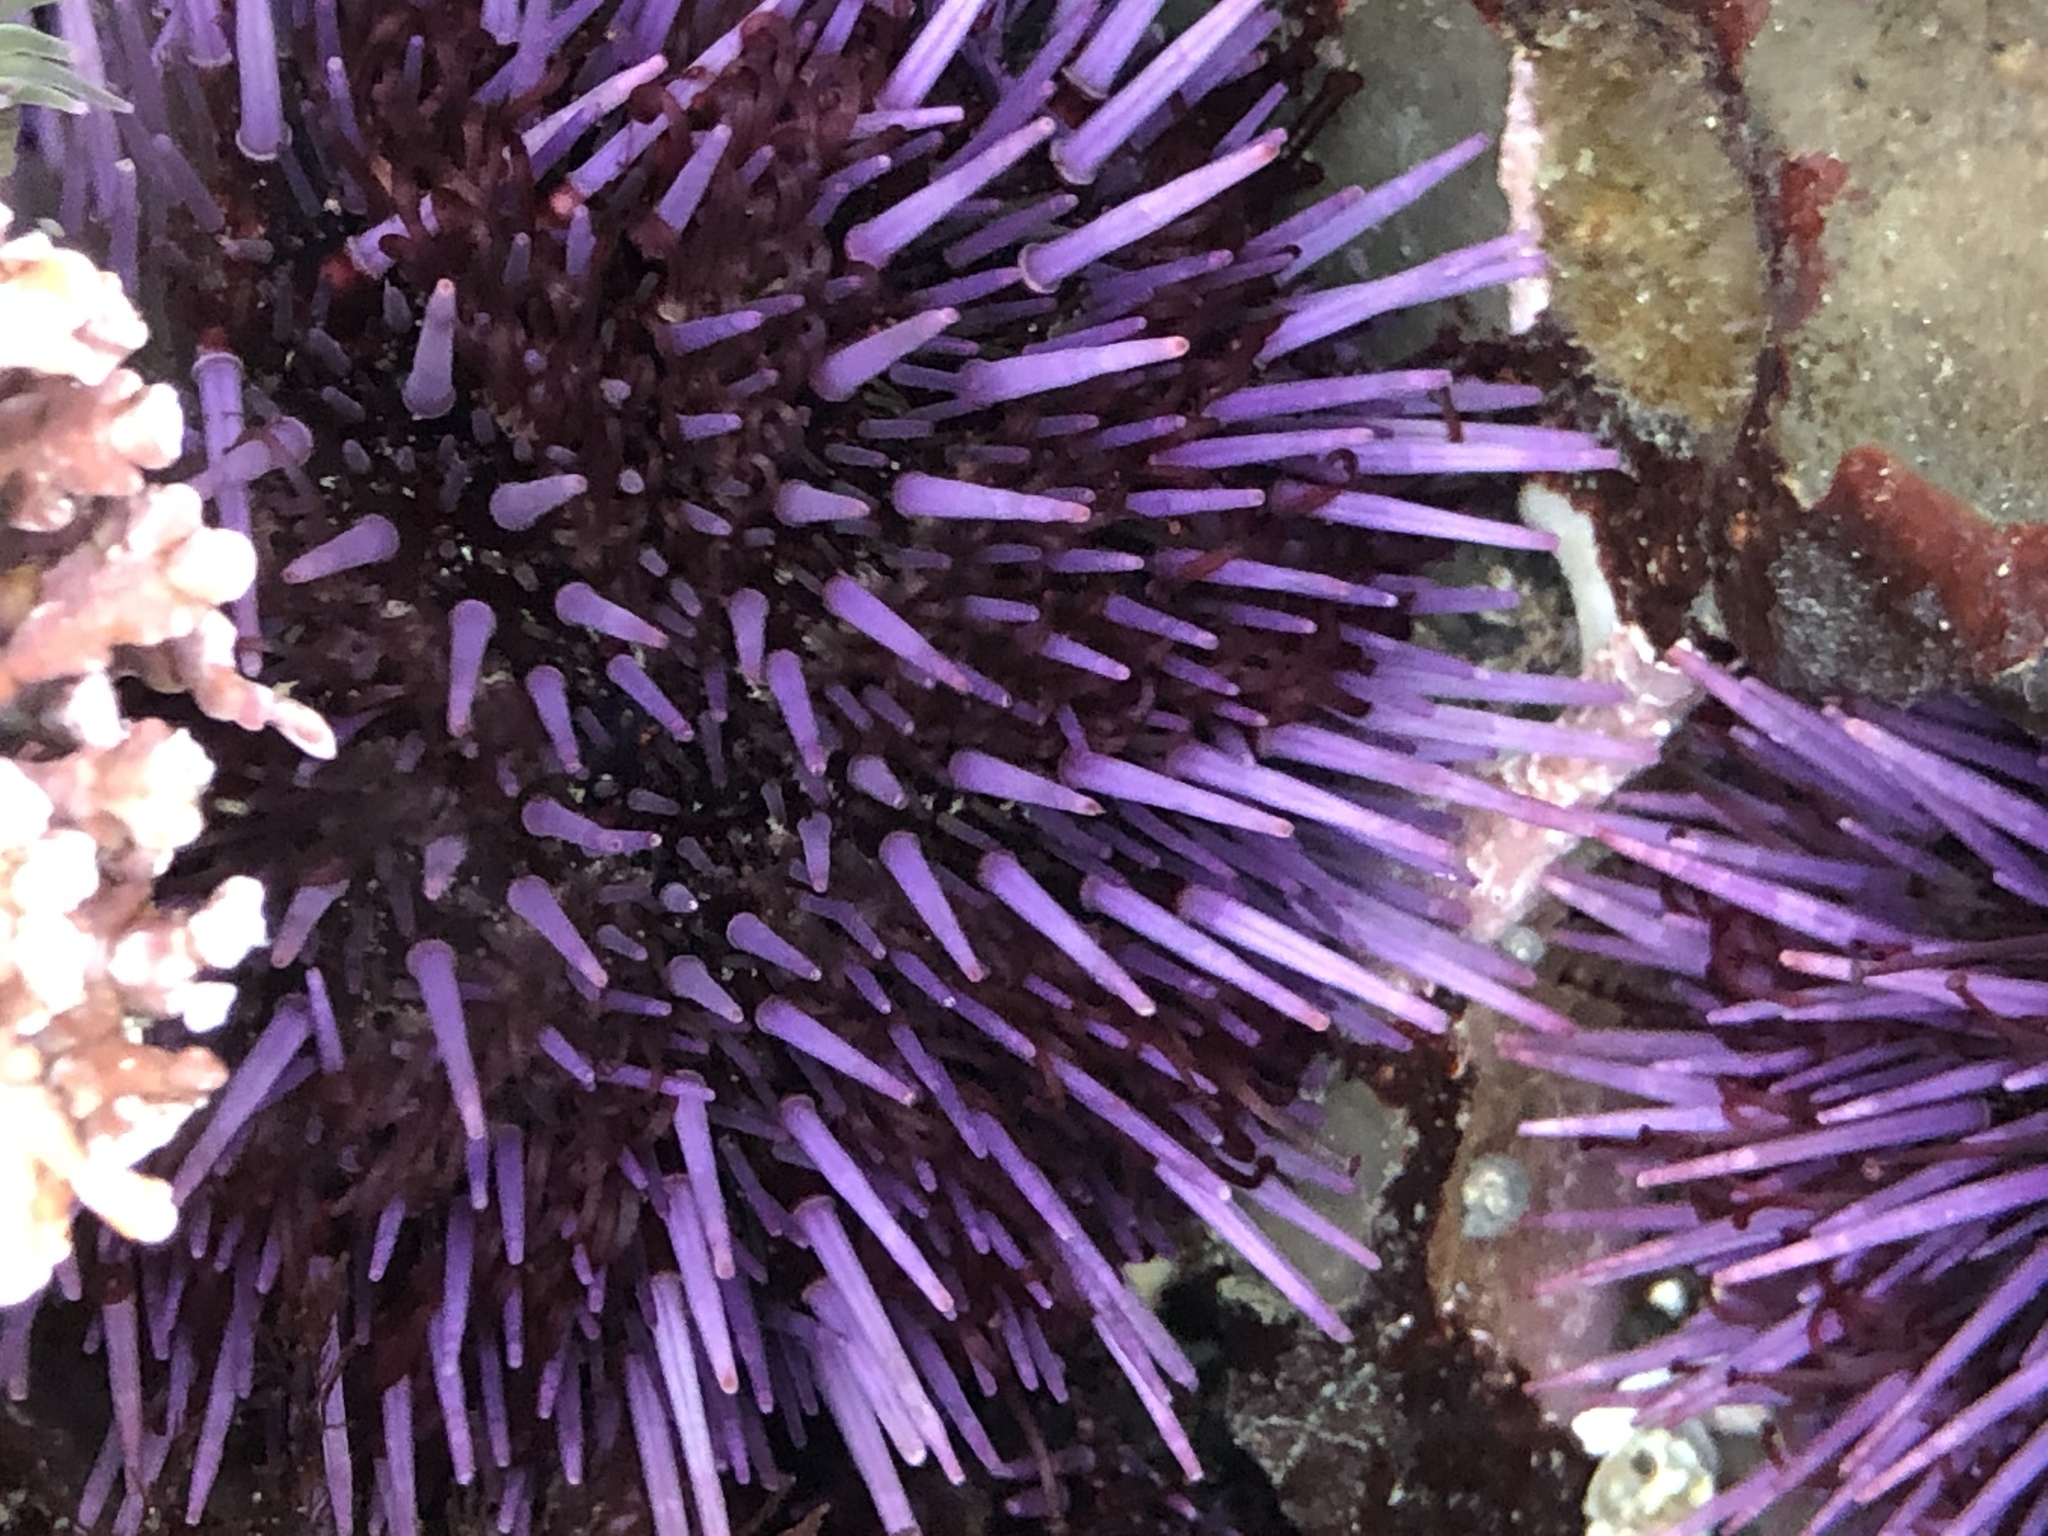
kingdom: Animalia
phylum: Echinodermata
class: Echinoidea
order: Camarodonta
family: Strongylocentrotidae
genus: Strongylocentrotus
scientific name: Strongylocentrotus purpuratus
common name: Purple sea urchin
